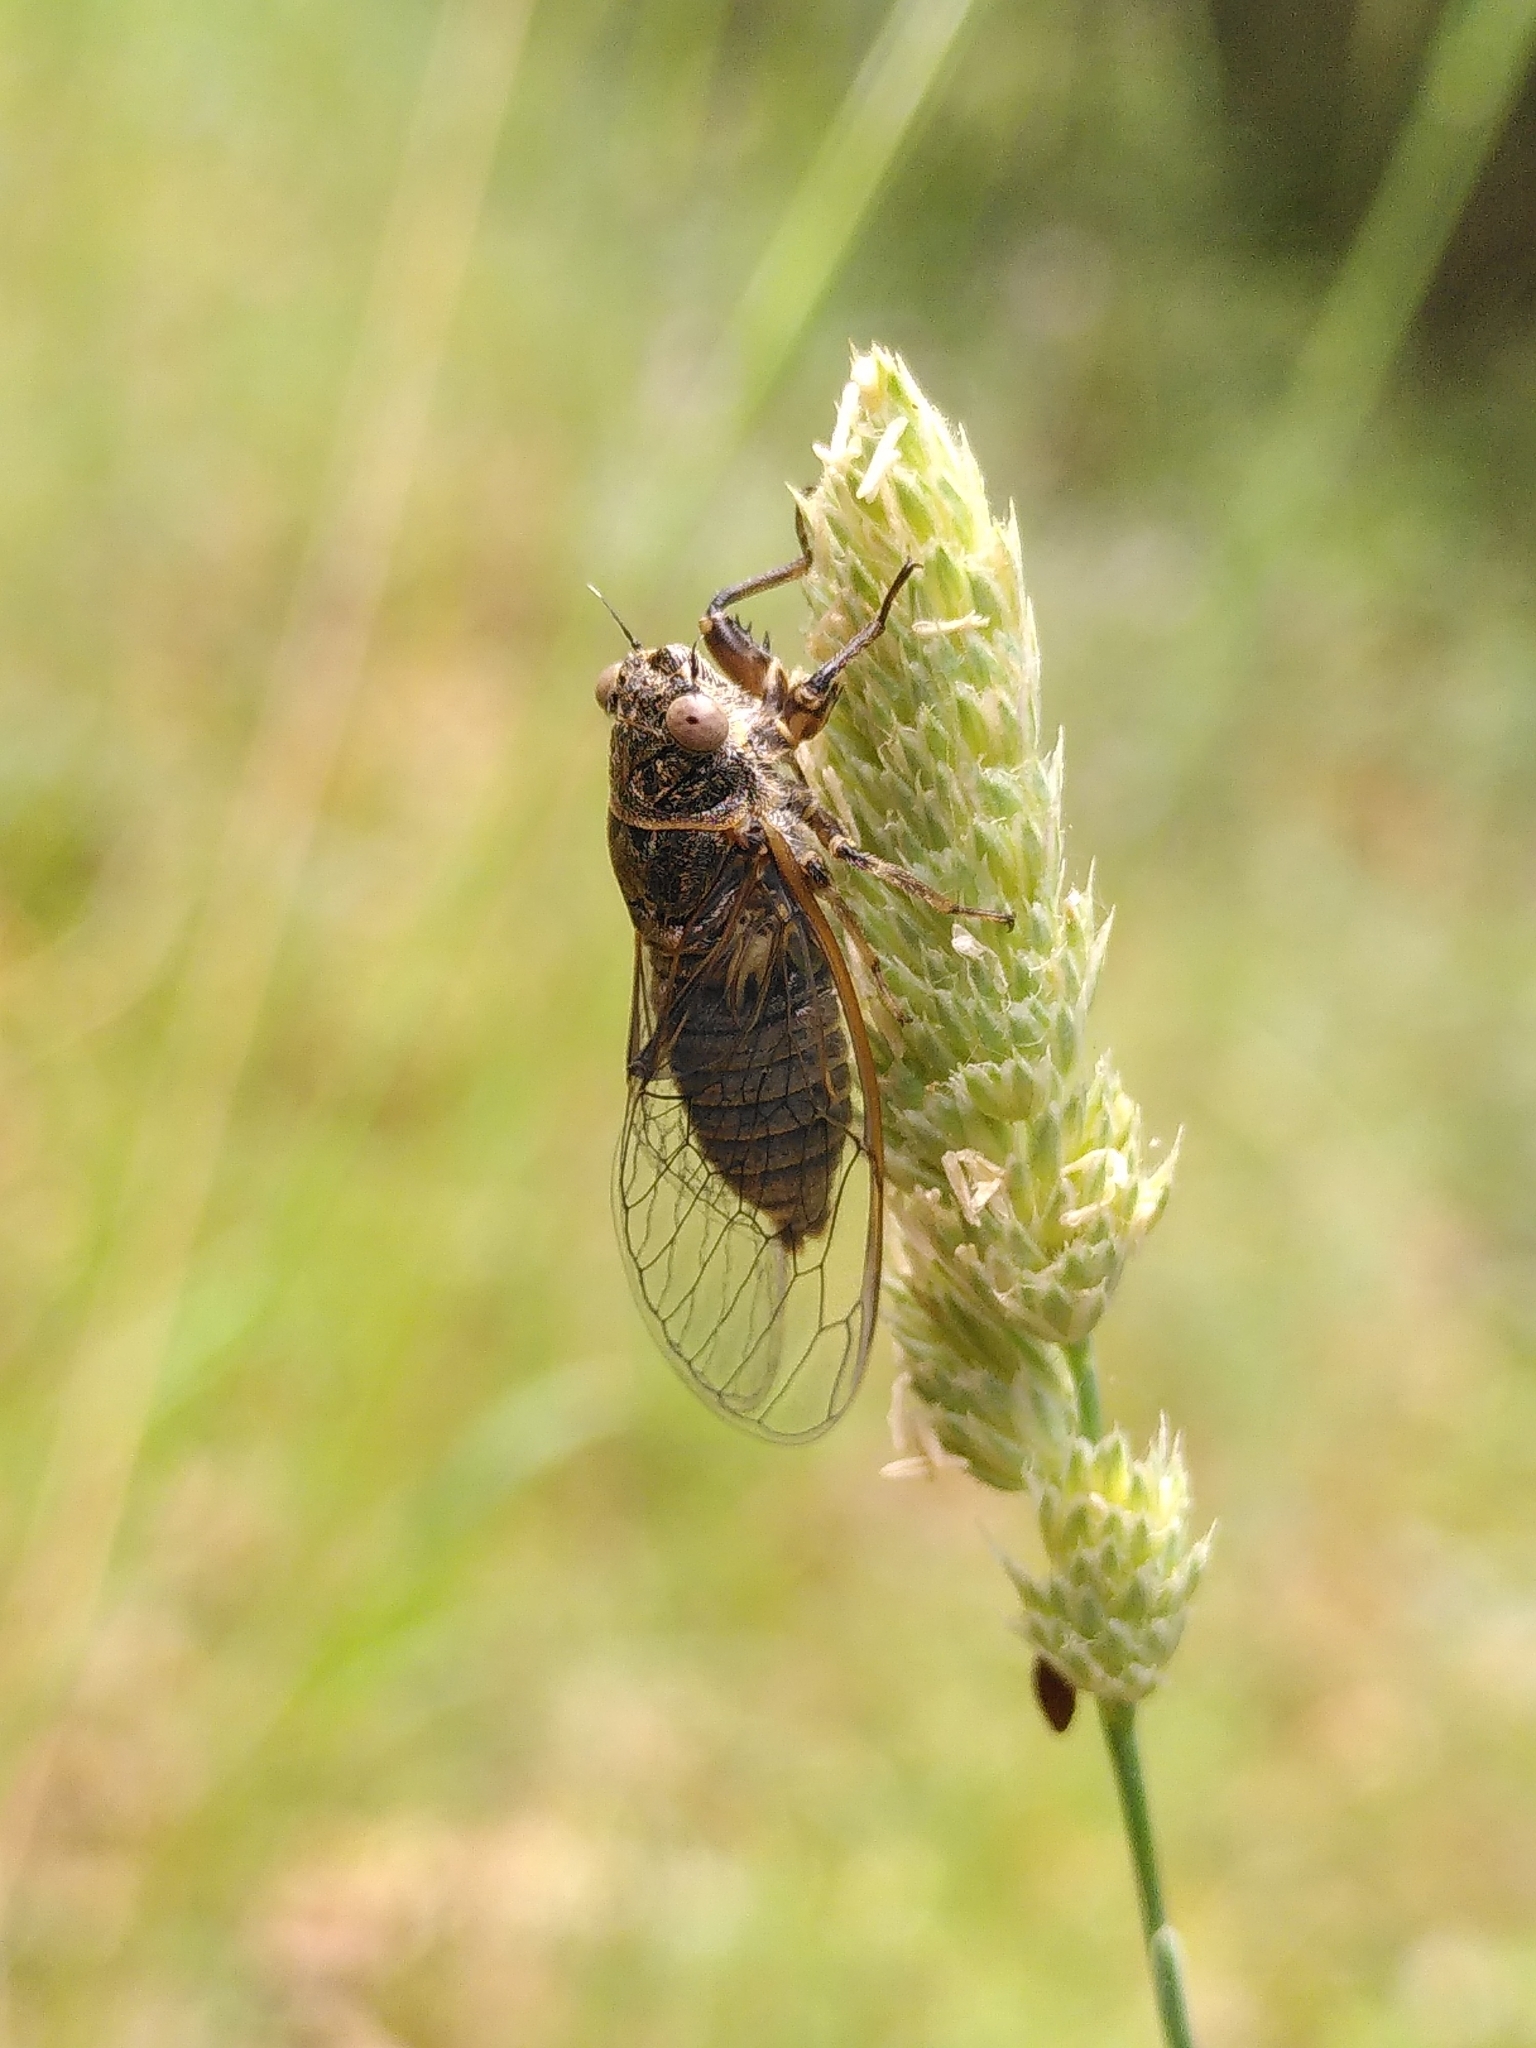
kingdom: Animalia
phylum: Arthropoda
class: Insecta
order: Hemiptera
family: Cicadidae
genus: Tettigettula
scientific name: Tettigettula pygmea
